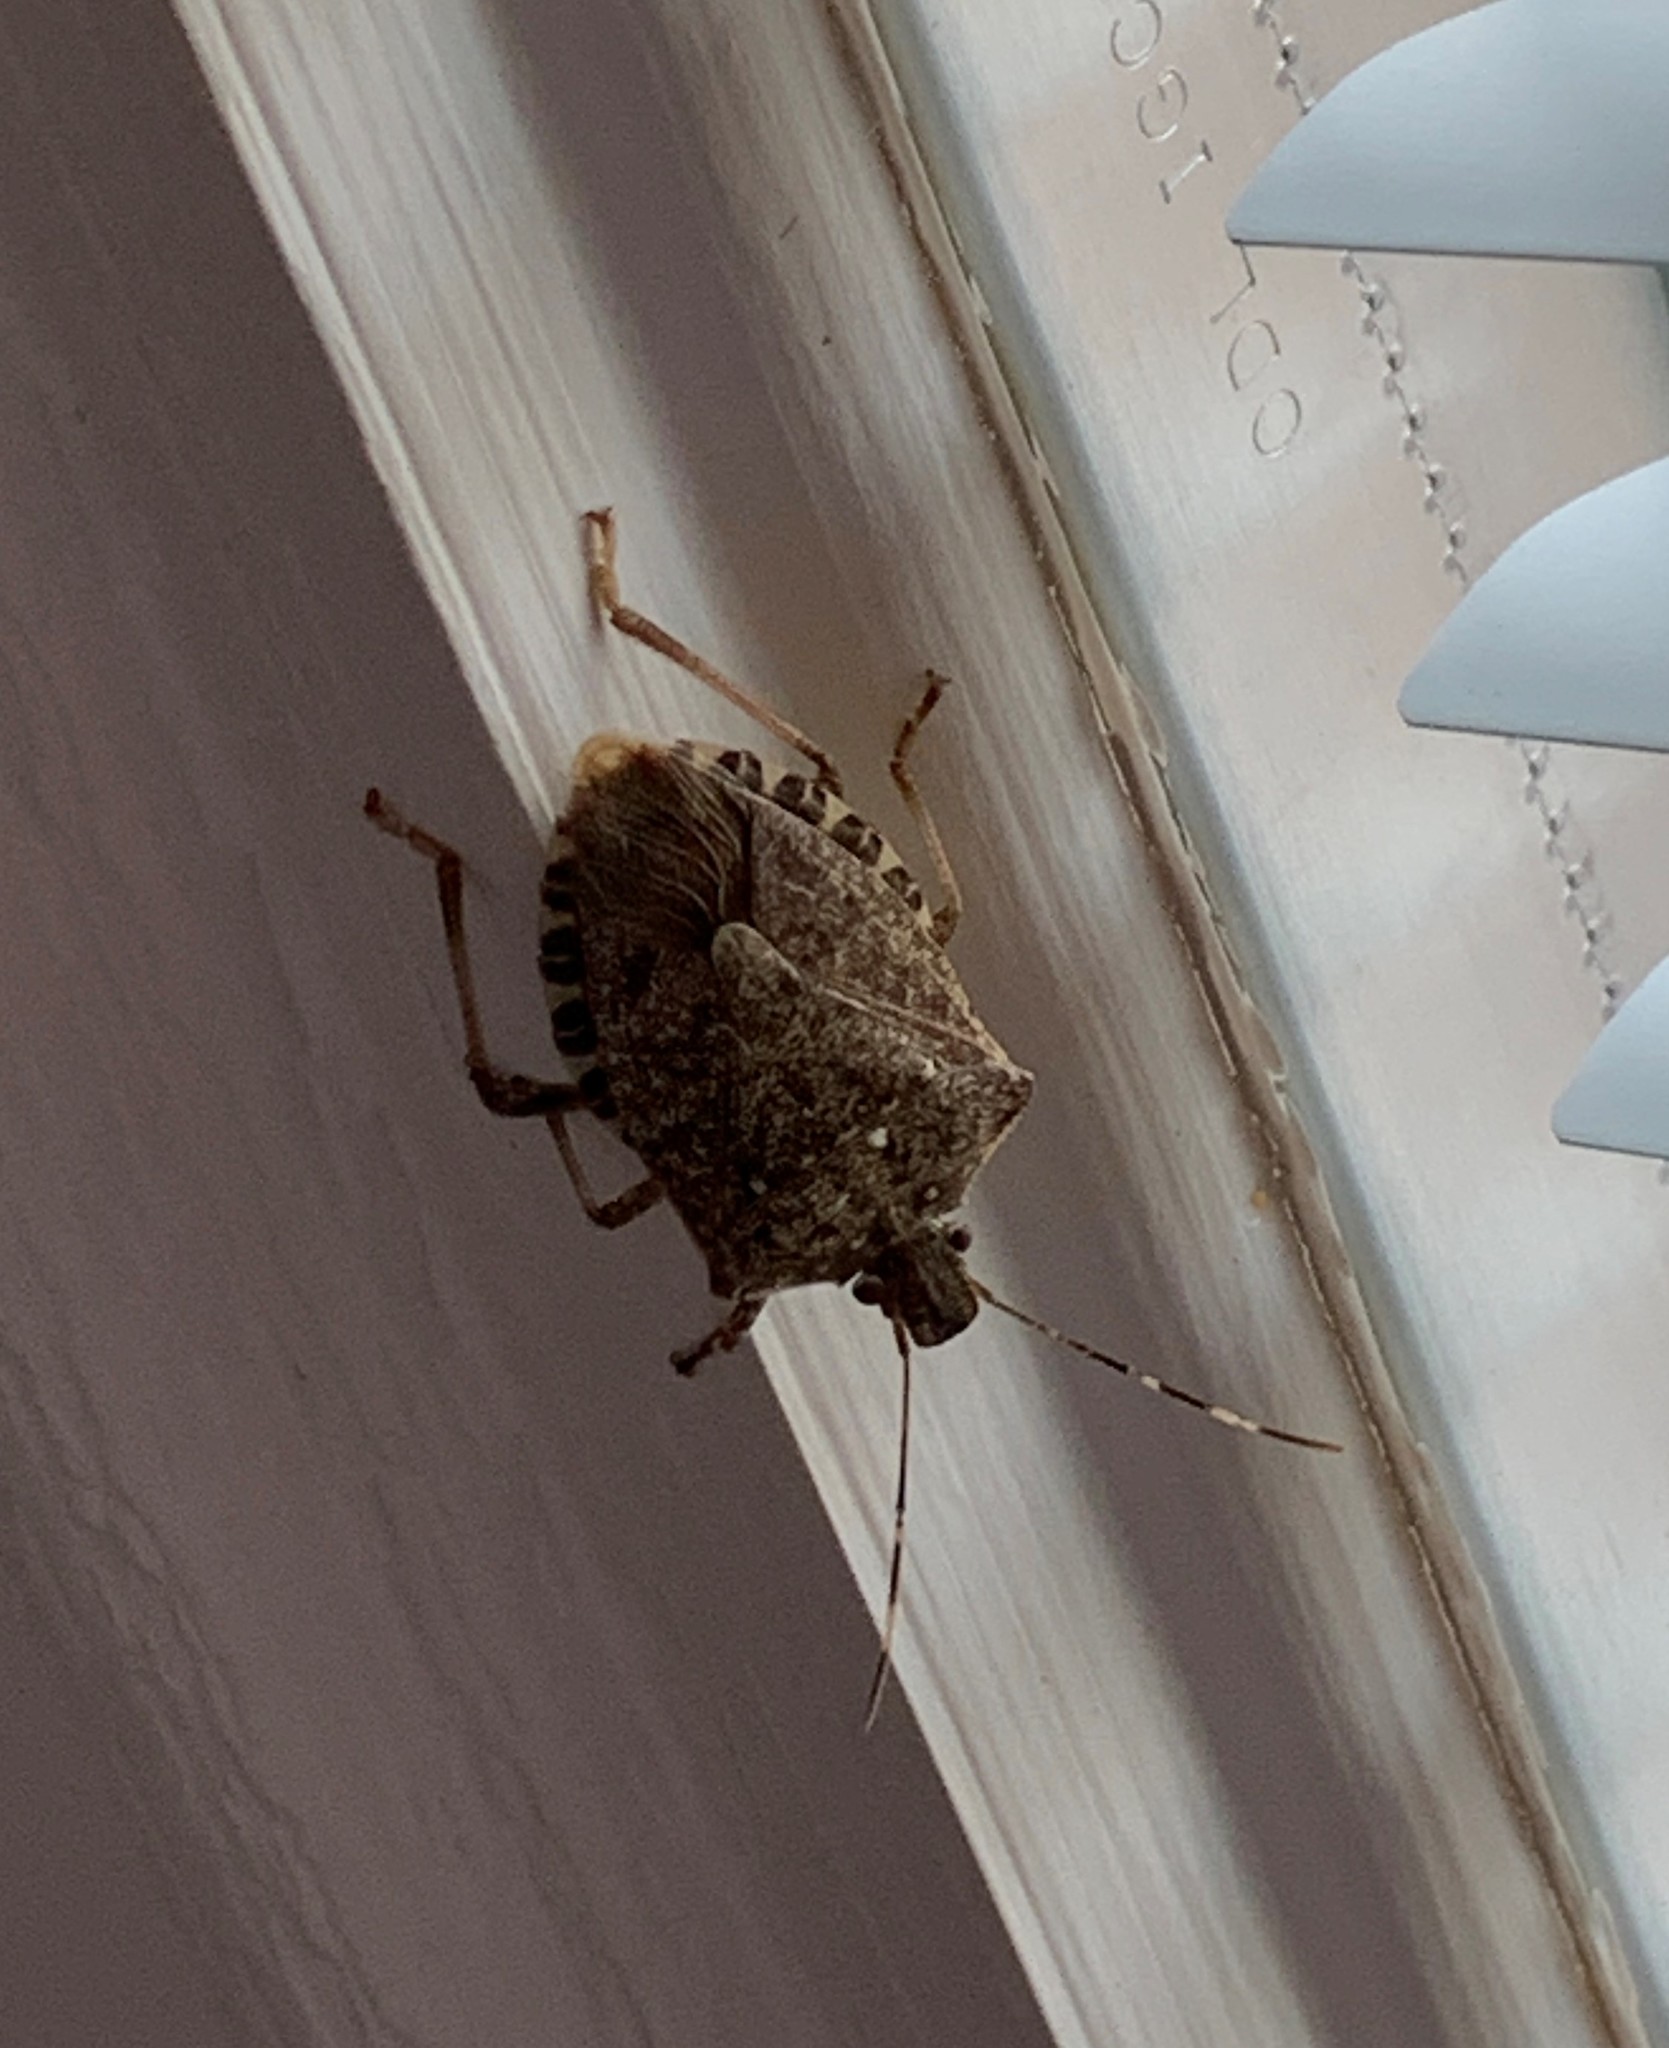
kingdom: Animalia
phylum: Arthropoda
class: Insecta
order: Hemiptera
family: Pentatomidae
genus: Halyomorpha
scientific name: Halyomorpha halys
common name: Brown marmorated stink bug
